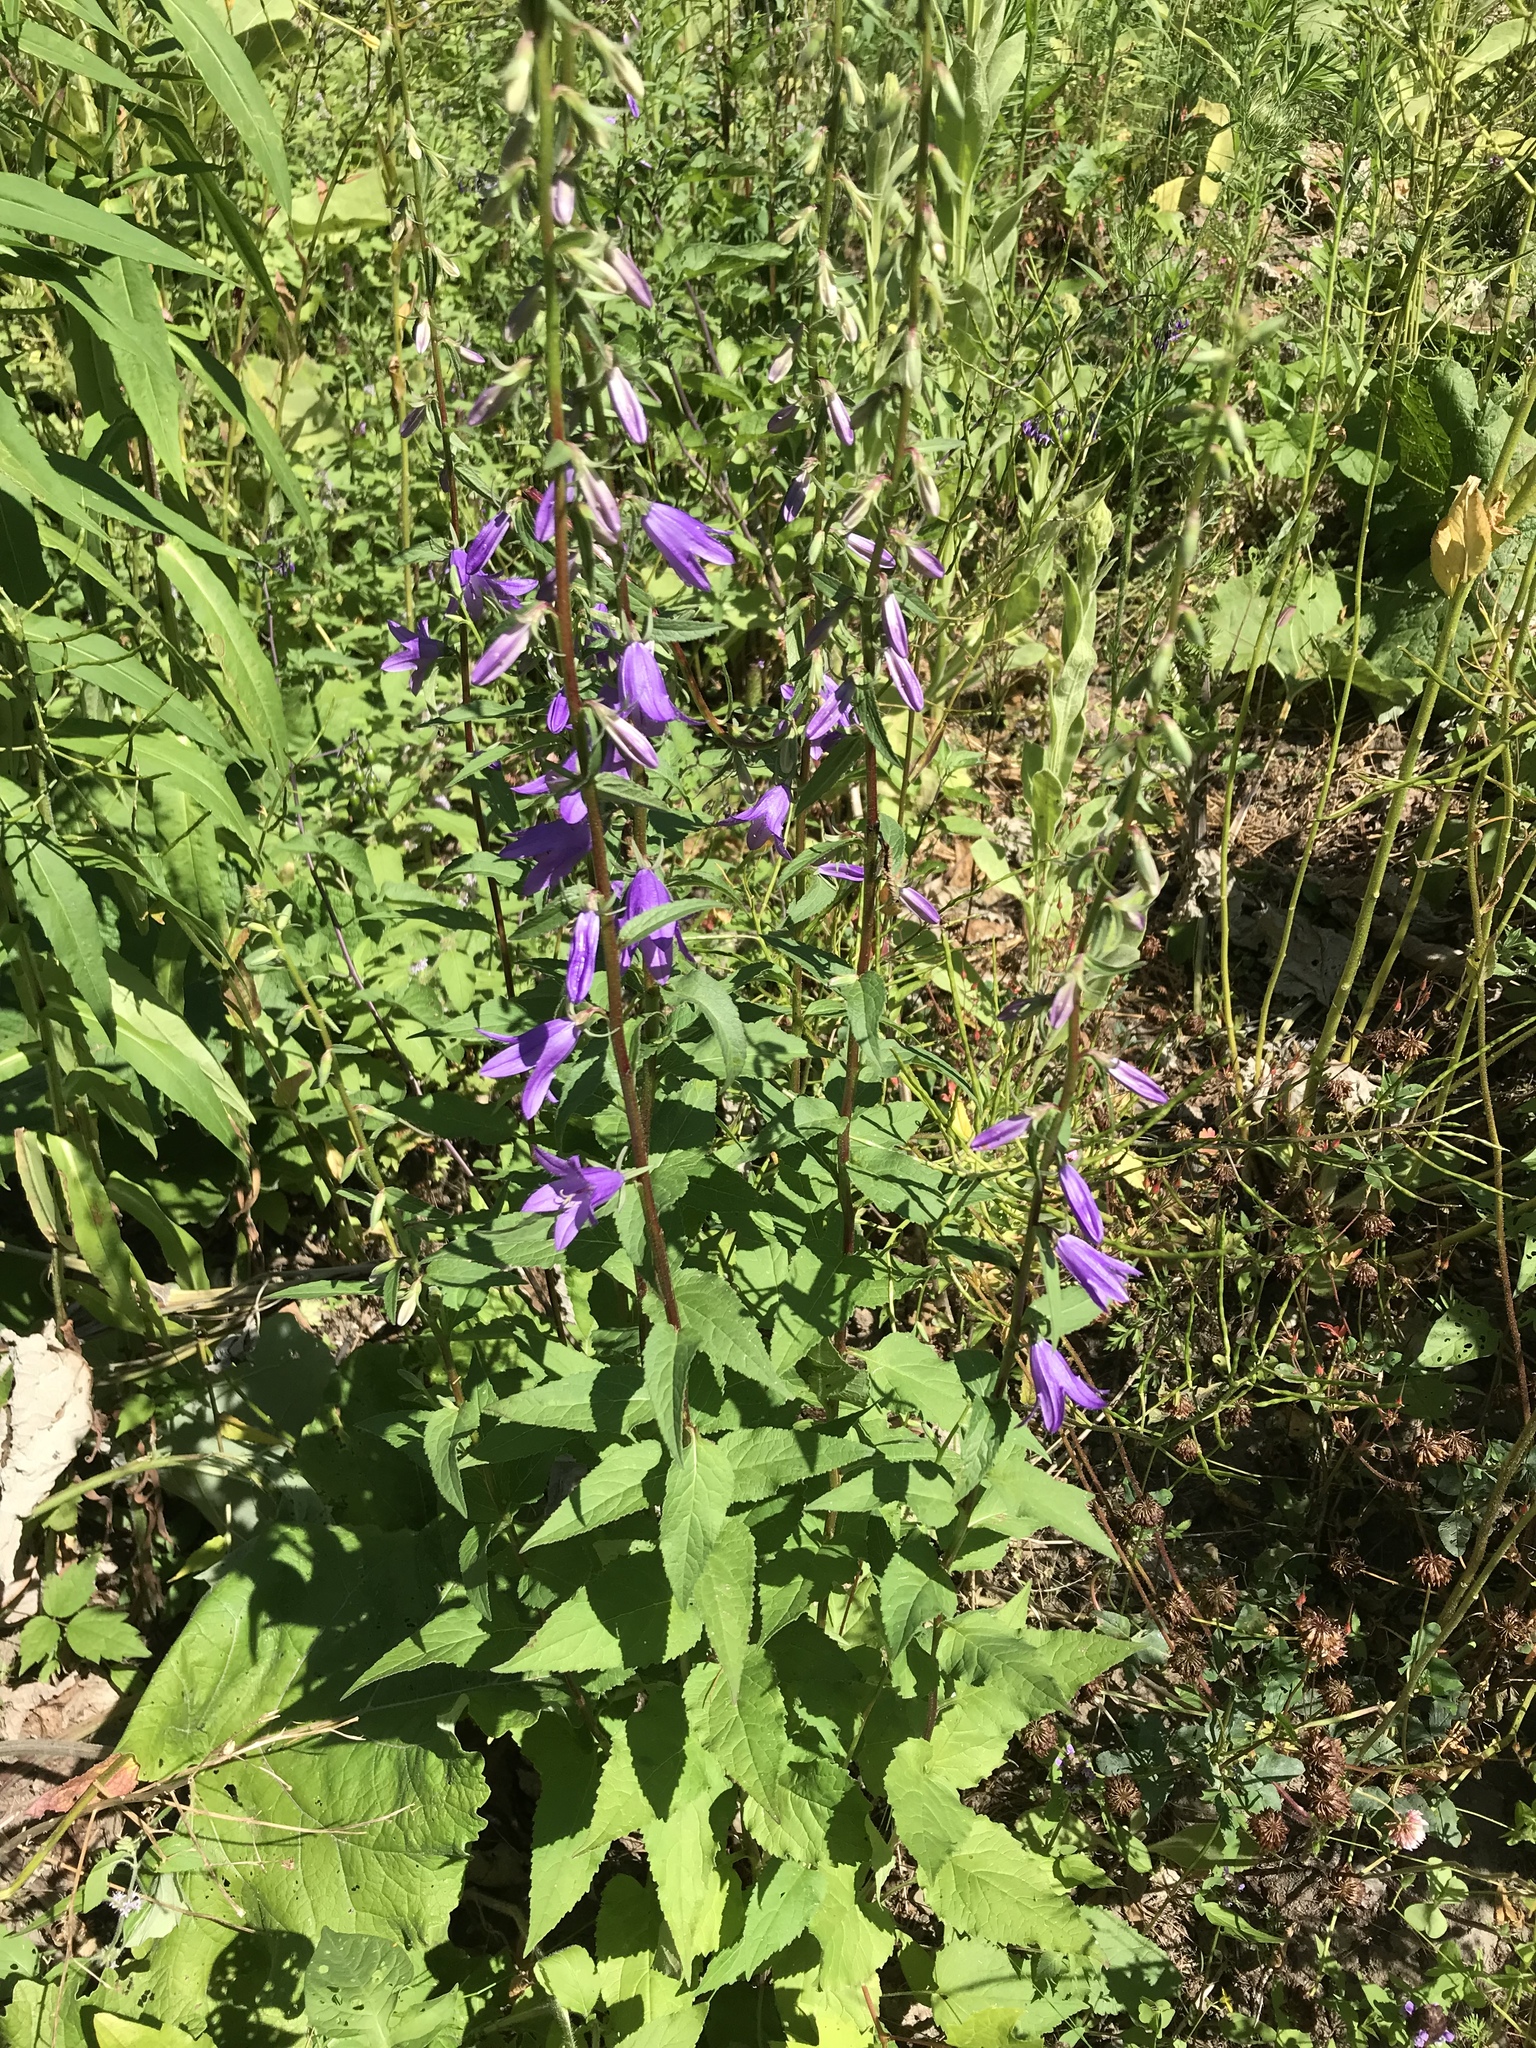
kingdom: Plantae
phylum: Tracheophyta
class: Magnoliopsida
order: Asterales
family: Campanulaceae
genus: Campanula
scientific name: Campanula rapunculoides
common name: Creeping bellflower
